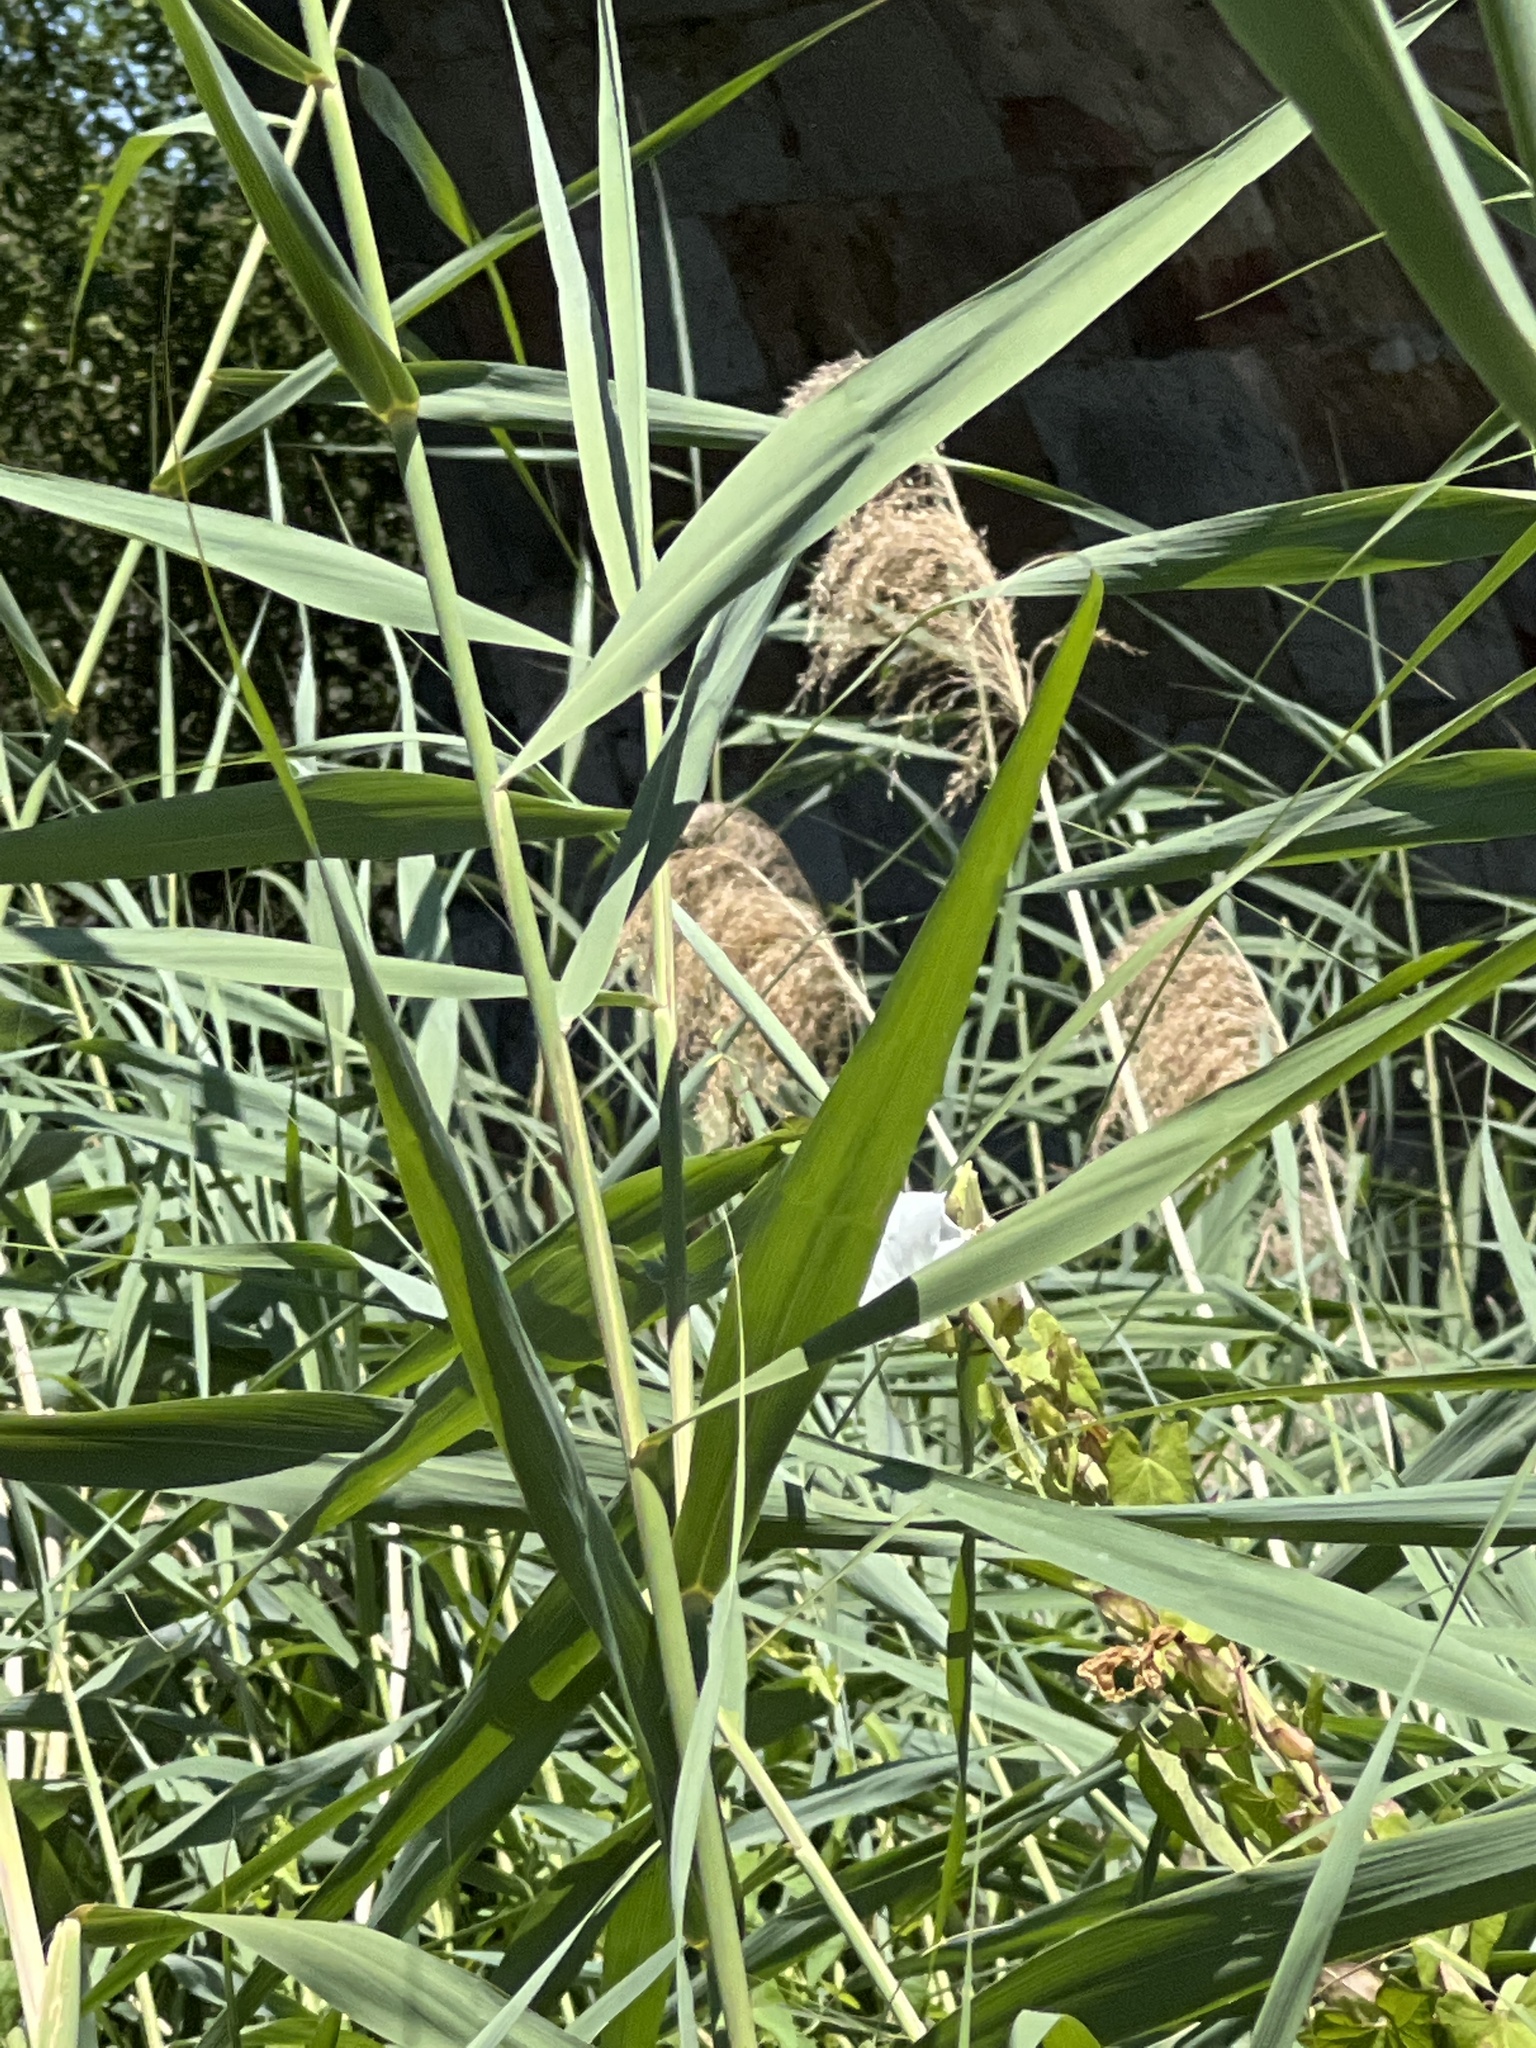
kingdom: Plantae
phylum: Tracheophyta
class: Liliopsida
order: Poales
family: Poaceae
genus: Phragmites
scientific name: Phragmites australis
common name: Common reed
